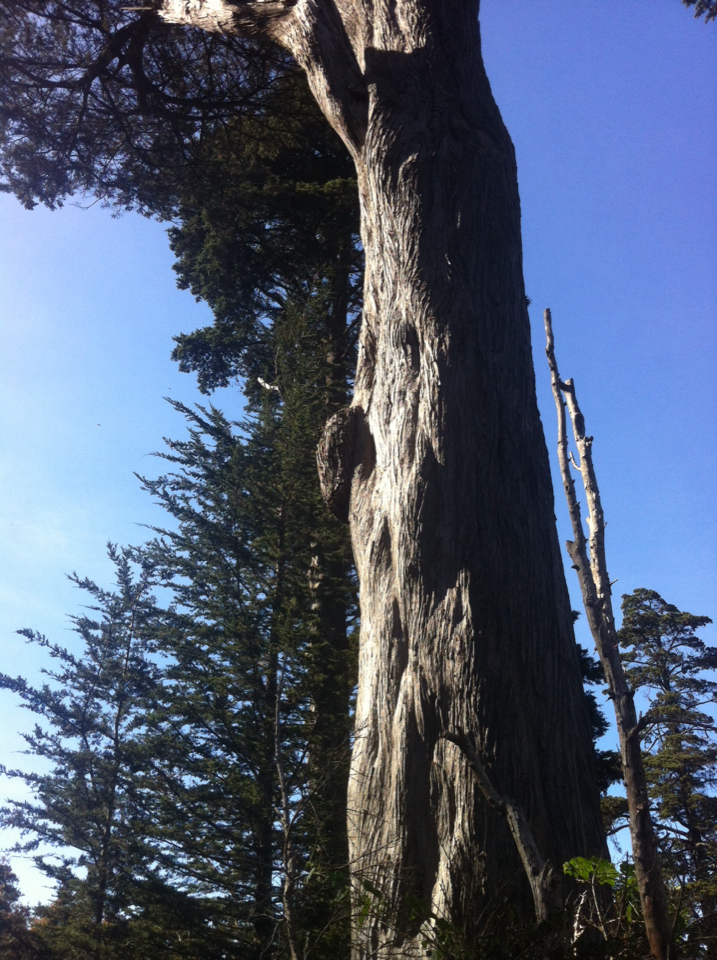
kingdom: Animalia
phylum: Arthropoda
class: Insecta
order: Hymenoptera
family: Apidae
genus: Apis
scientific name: Apis mellifera
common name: Honey bee
